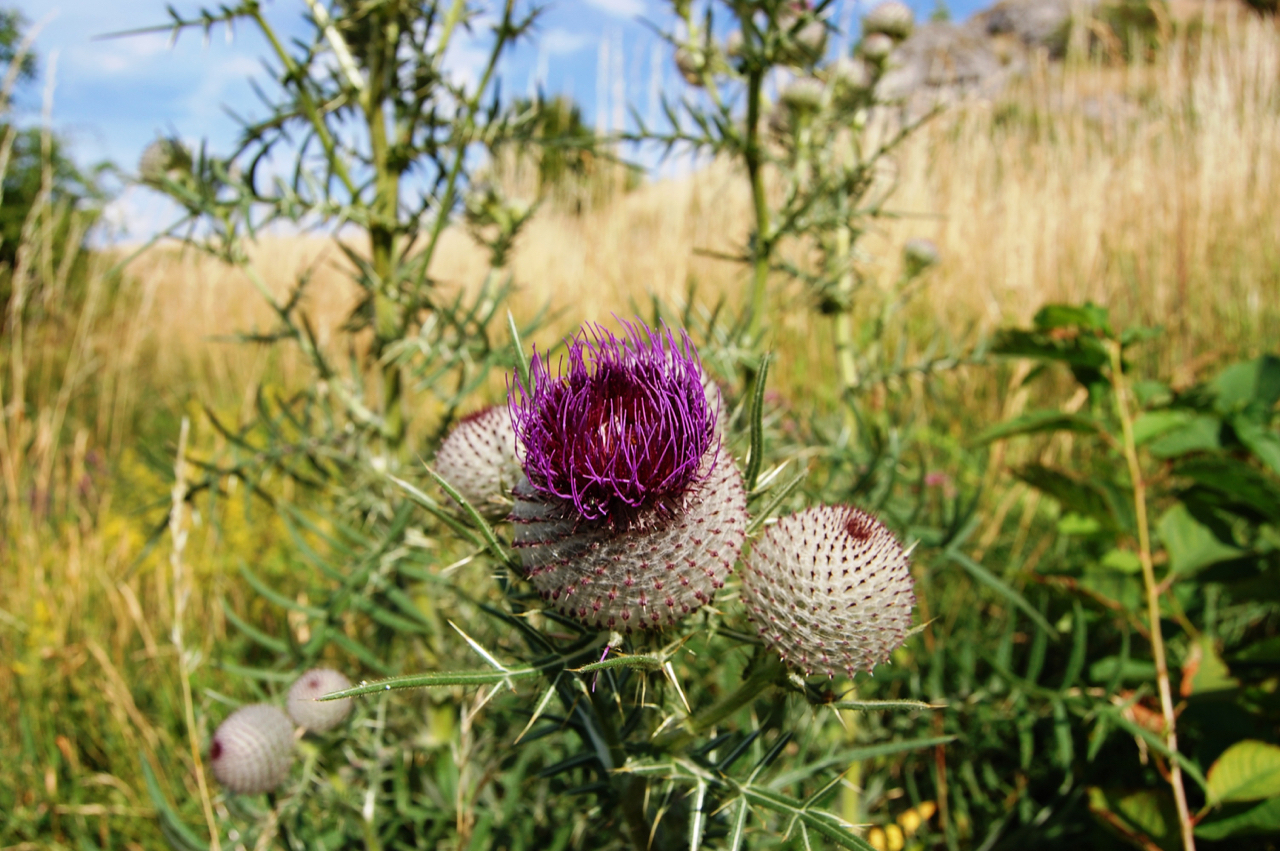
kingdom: Plantae
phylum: Tracheophyta
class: Magnoliopsida
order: Asterales
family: Asteraceae
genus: Lophiolepis
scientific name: Lophiolepis eriophora
